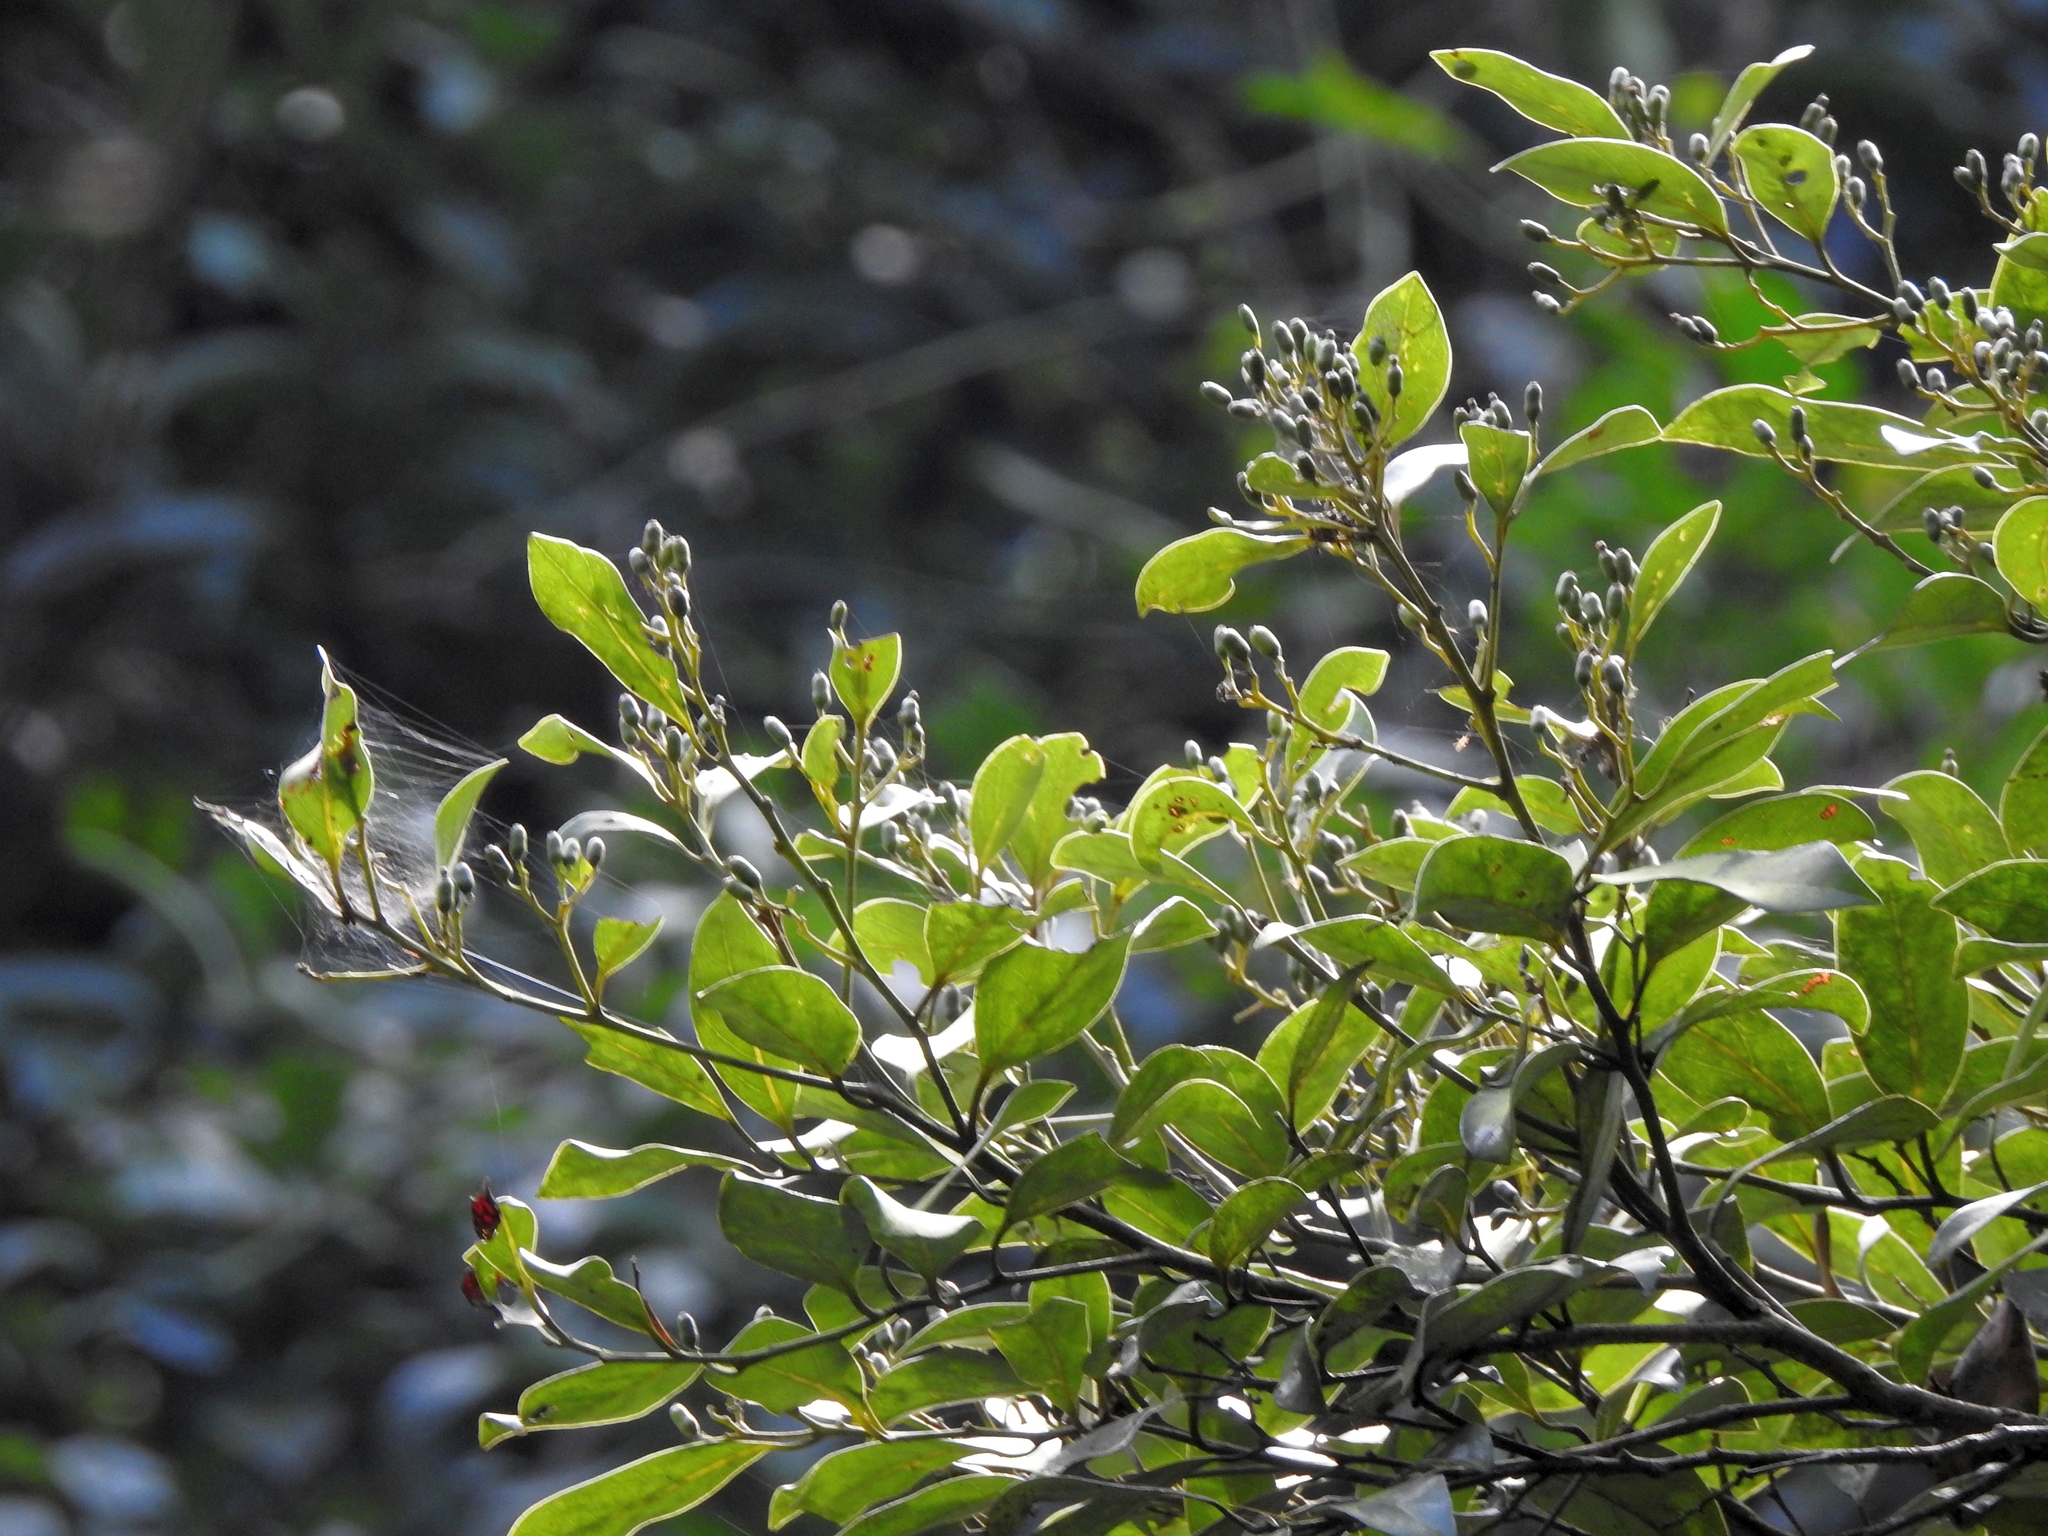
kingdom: Plantae
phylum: Tracheophyta
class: Magnoliopsida
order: Laurales
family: Lauraceae
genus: Cryptocarya
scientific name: Cryptocarya concinna
